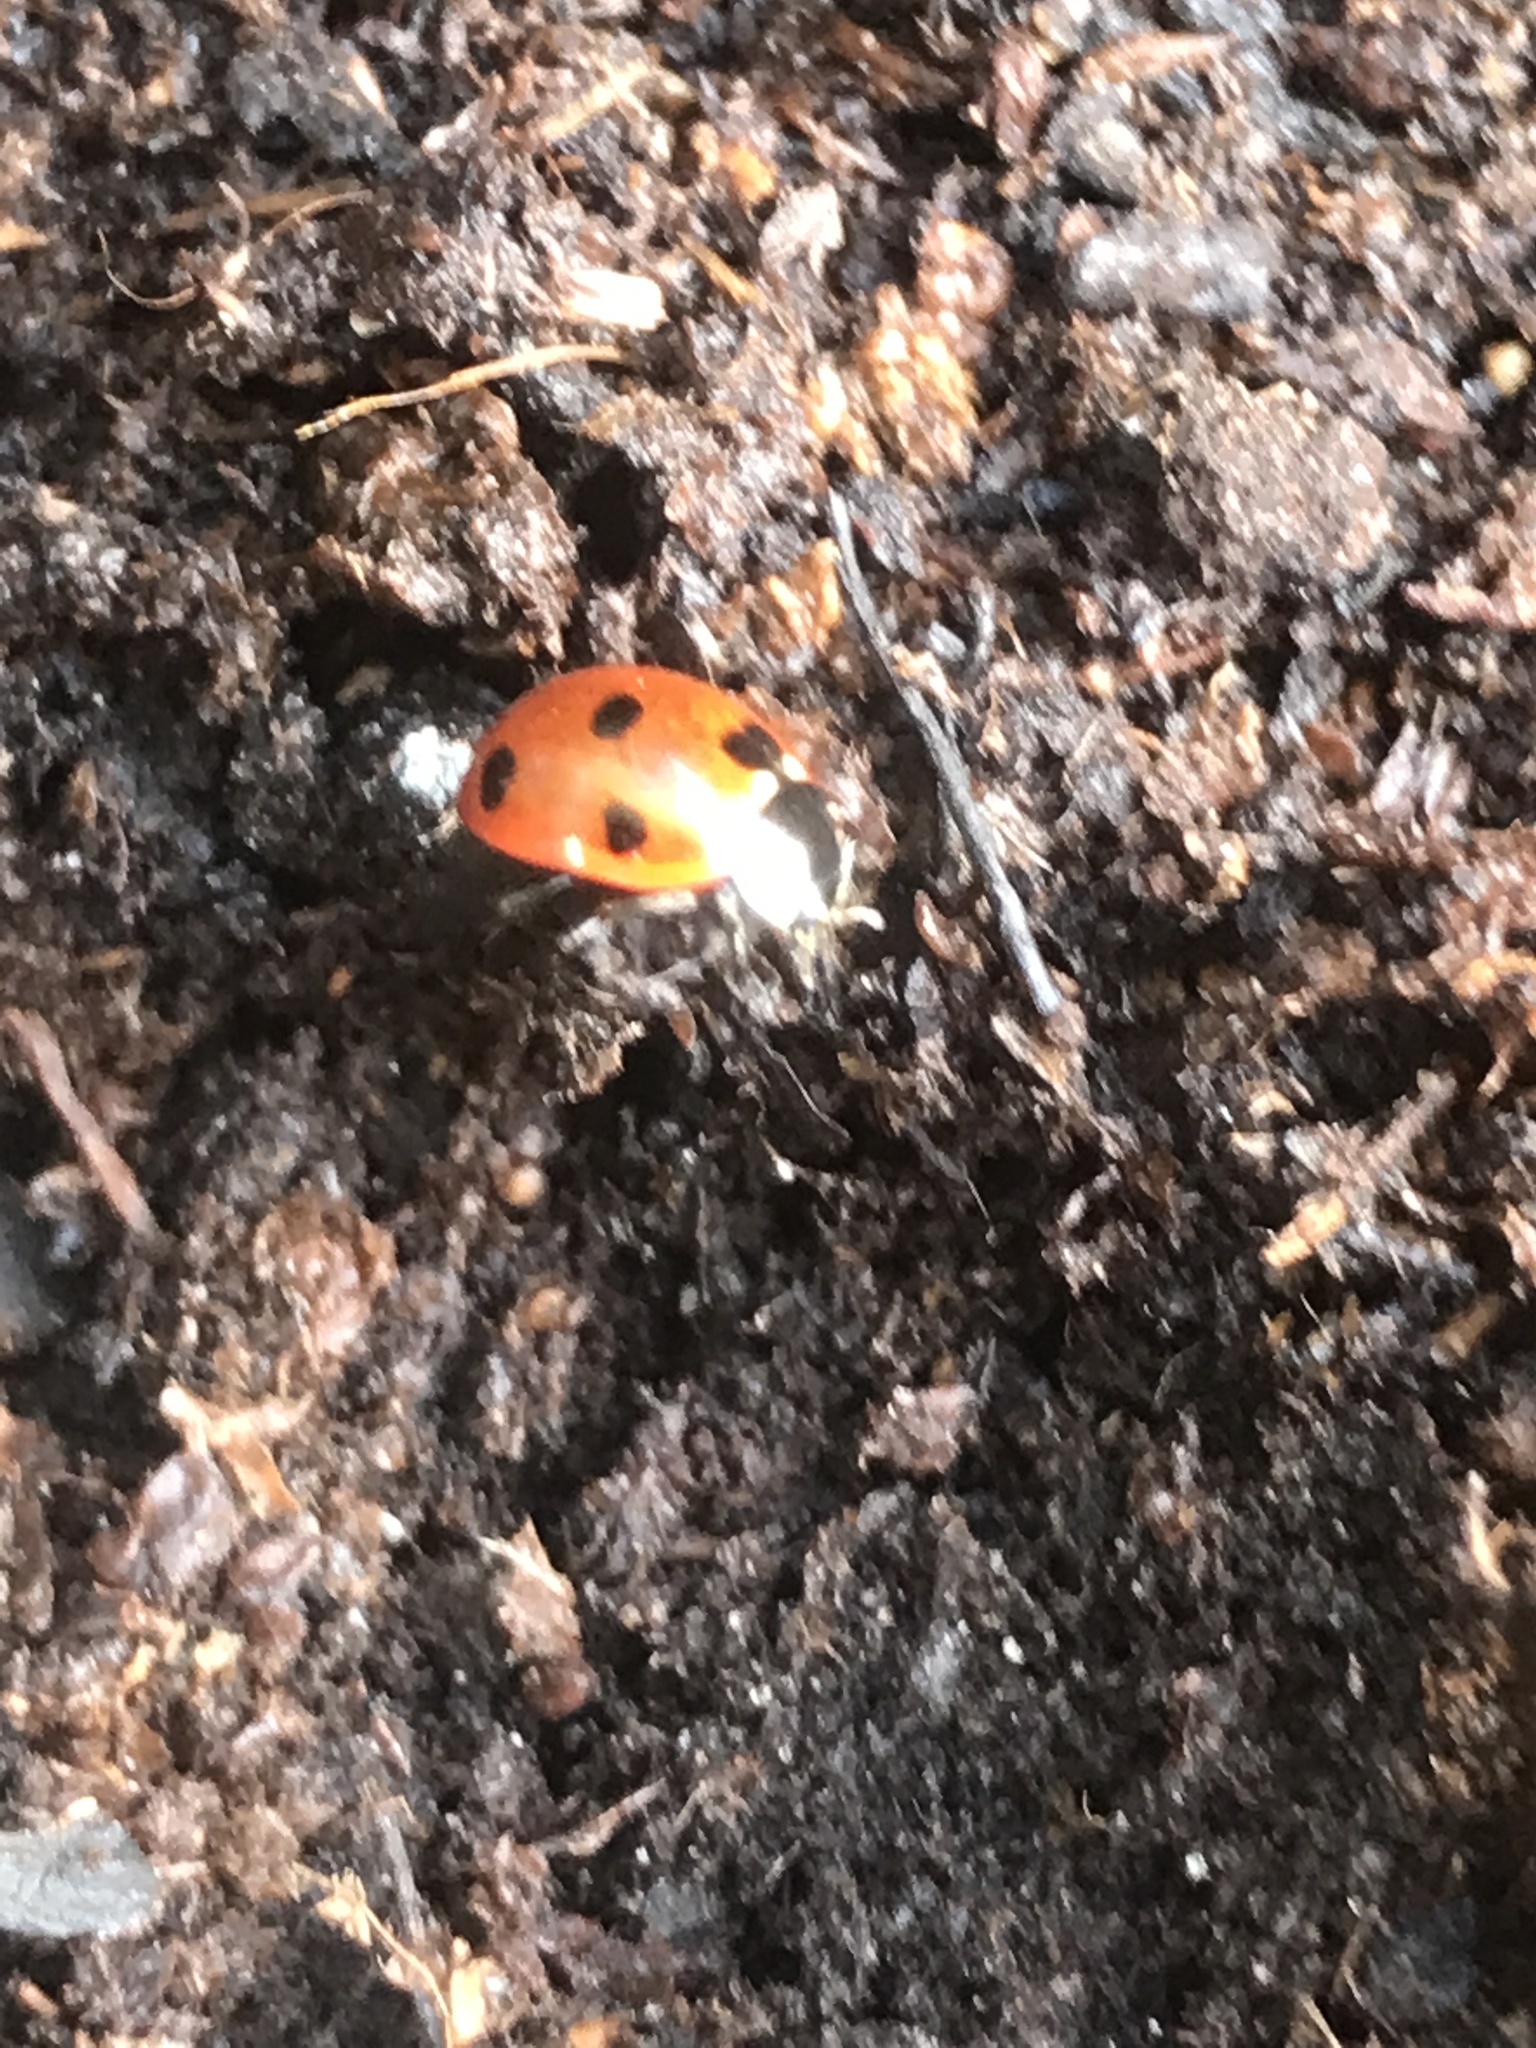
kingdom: Animalia
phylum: Arthropoda
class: Insecta
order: Coleoptera
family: Coccinellidae
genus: Coccinella
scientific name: Coccinella septempunctata
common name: Sevenspotted lady beetle
